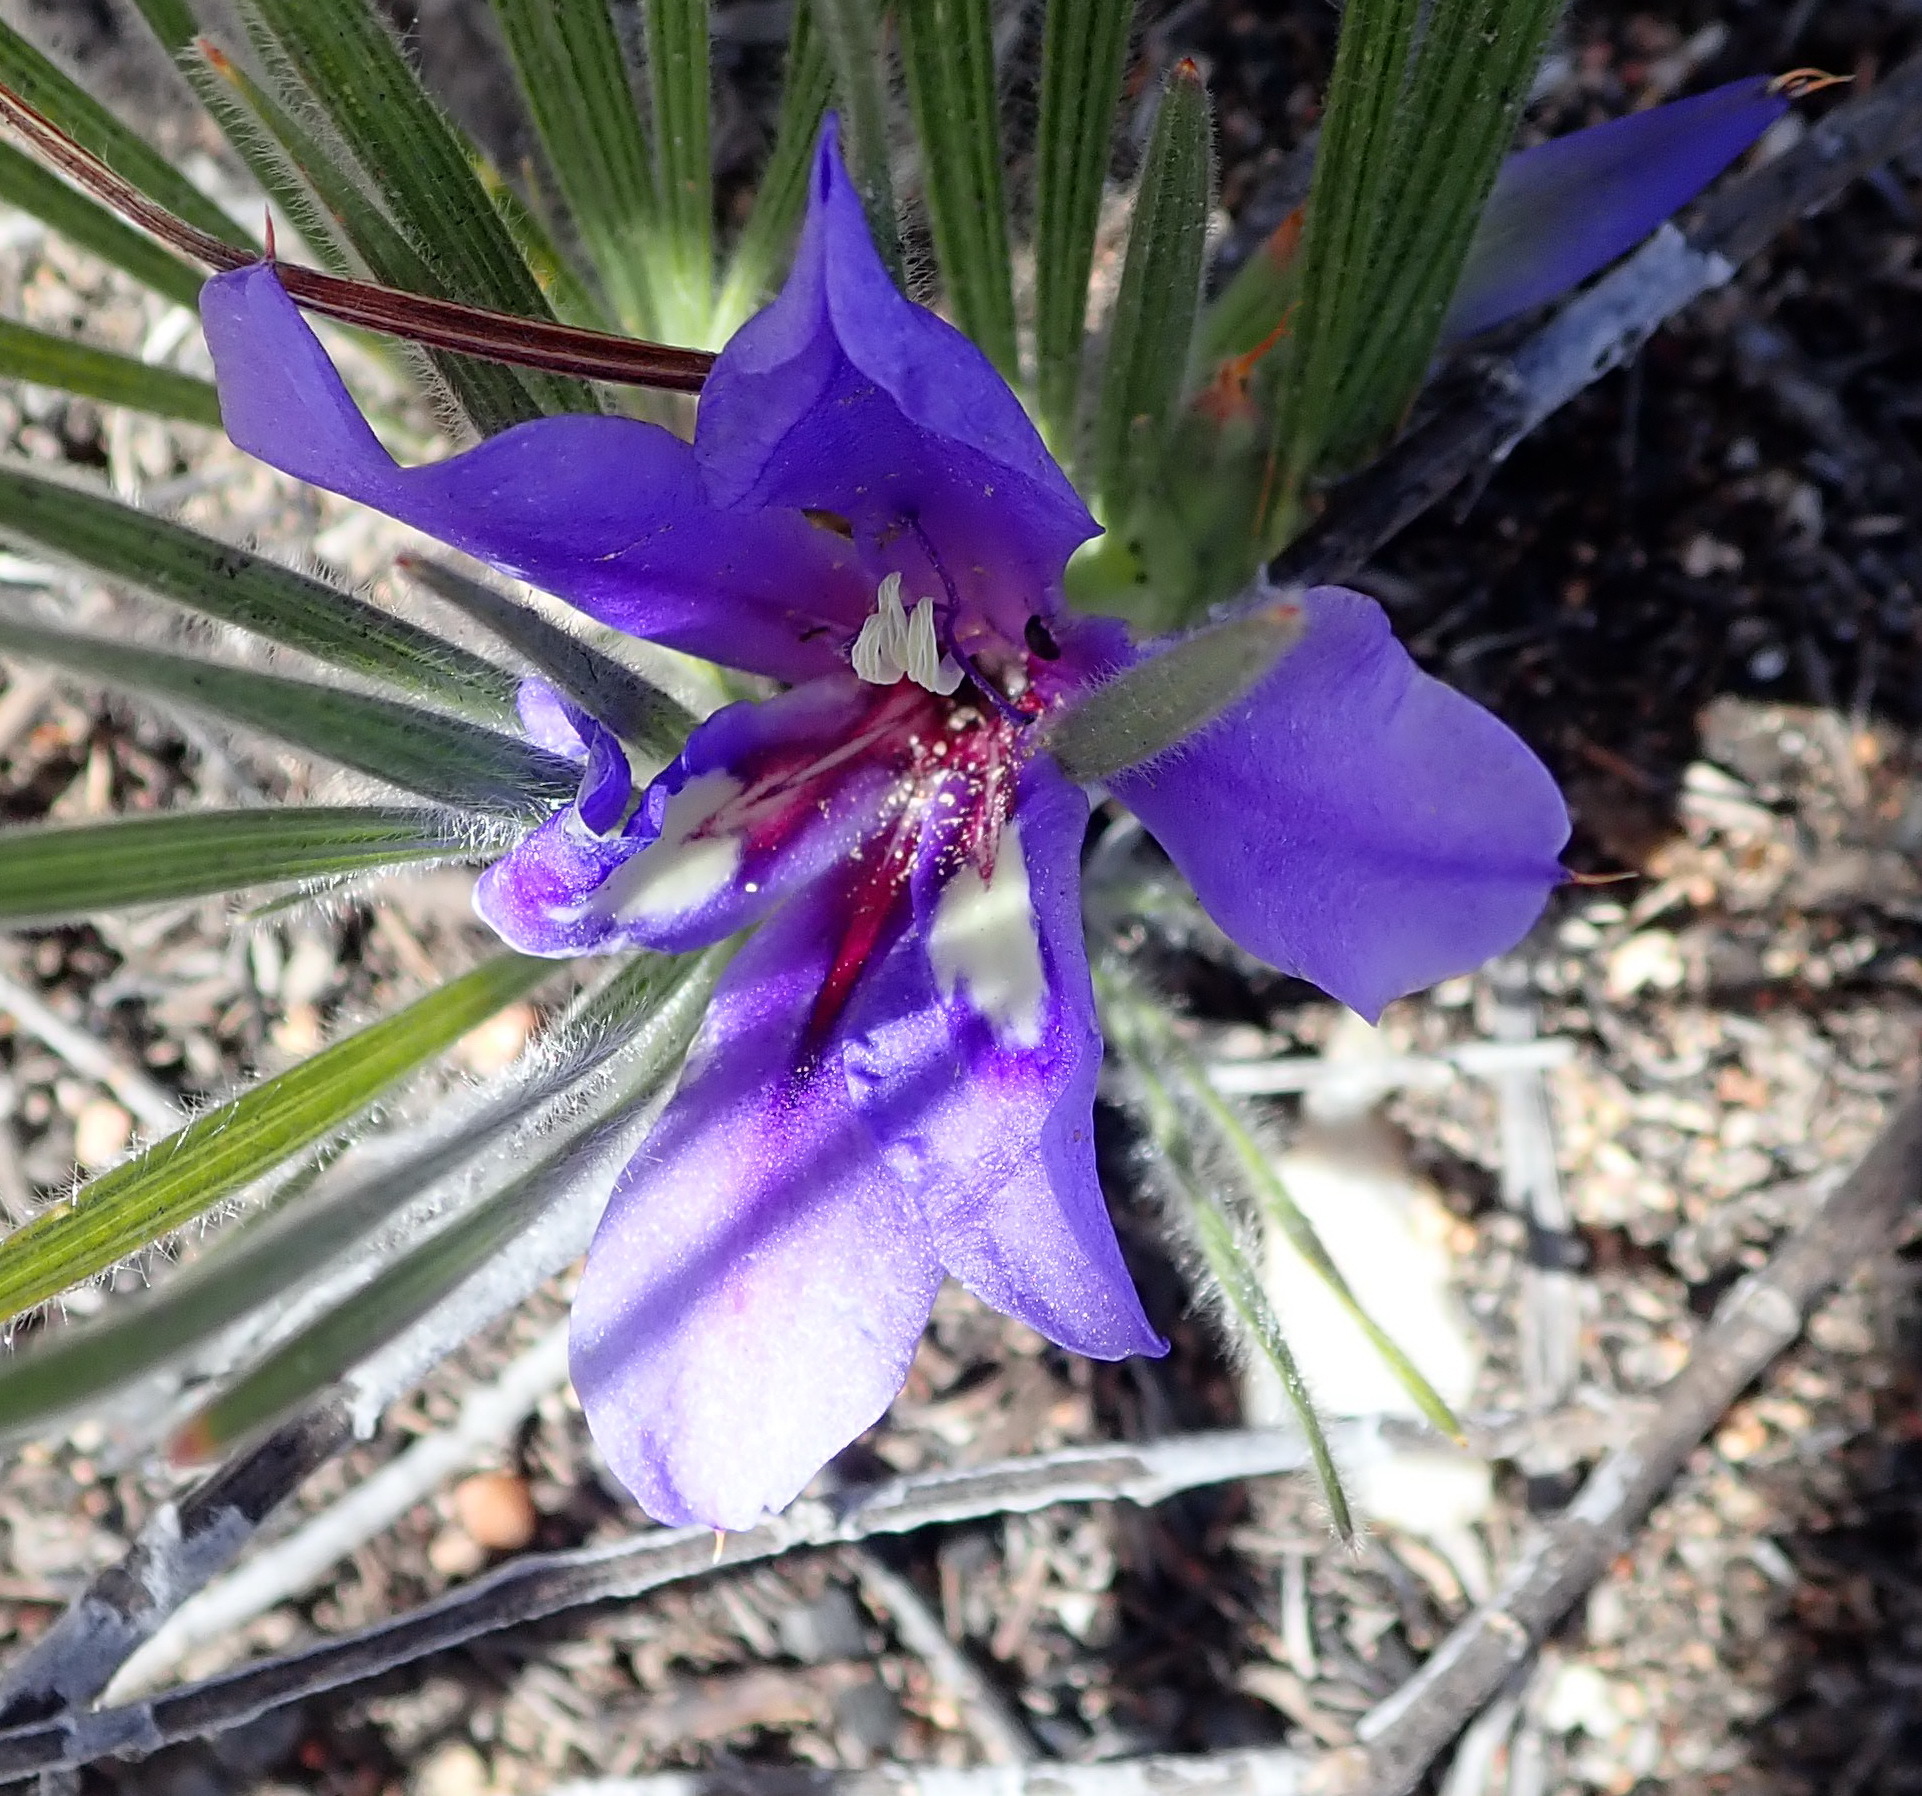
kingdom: Plantae
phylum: Tracheophyta
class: Liliopsida
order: Asparagales
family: Iridaceae
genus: Babiana
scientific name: Babiana sambucina
